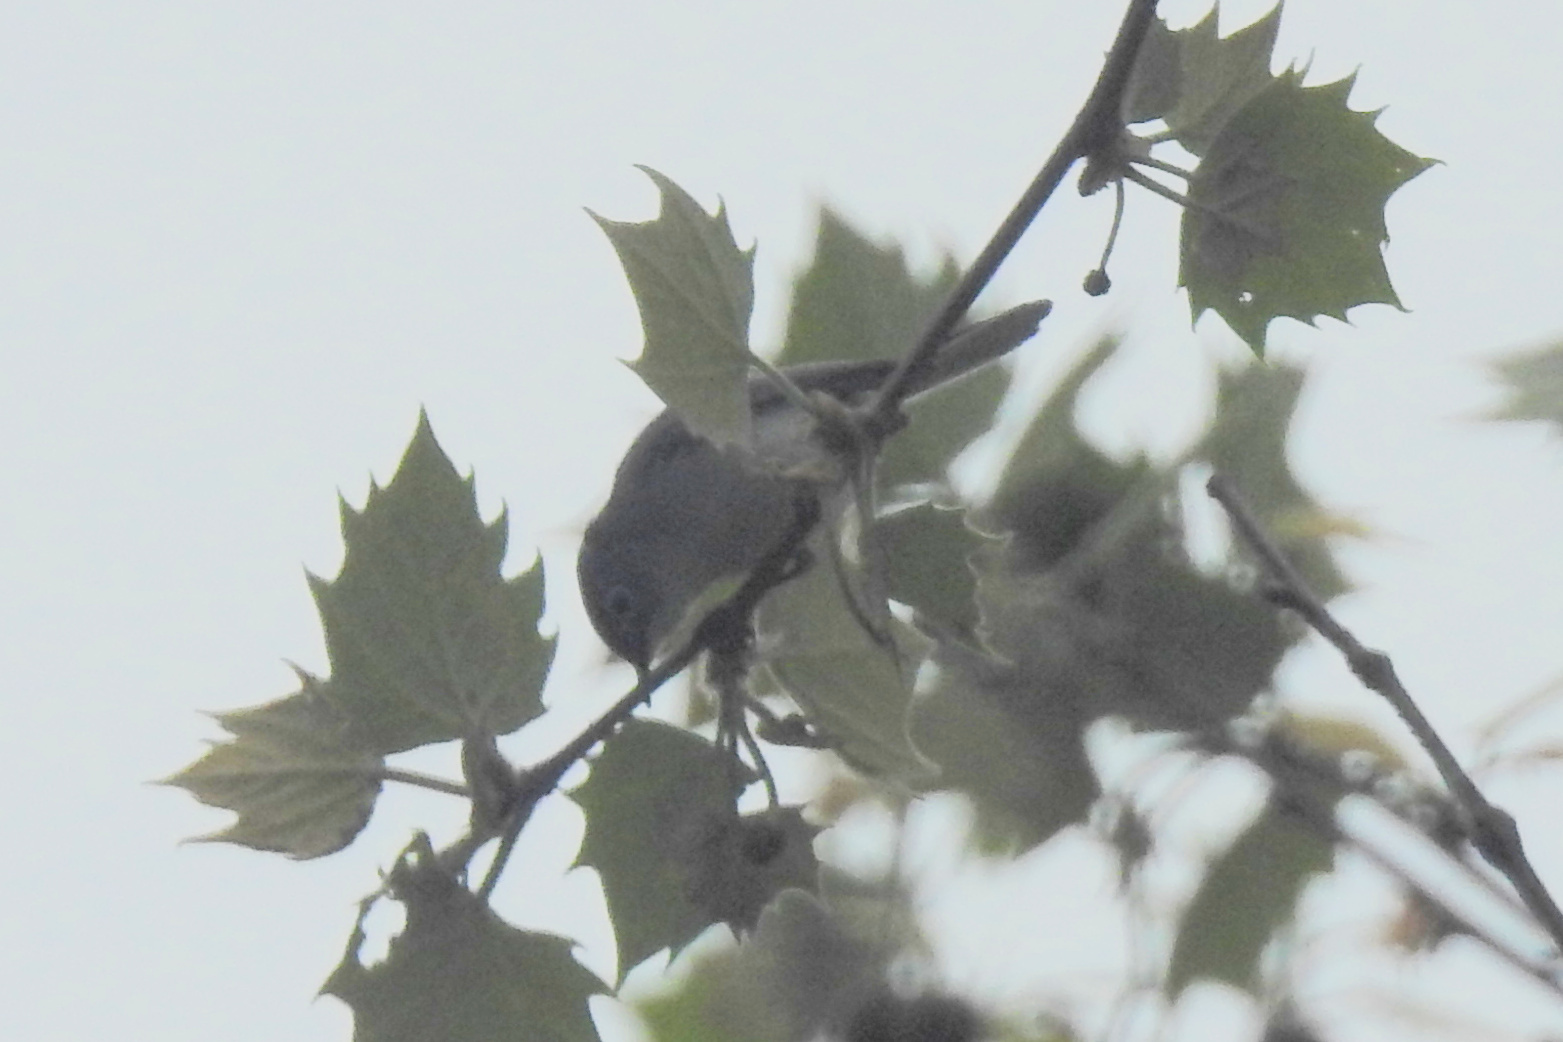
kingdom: Animalia
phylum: Chordata
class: Aves
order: Passeriformes
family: Polioptilidae
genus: Polioptila
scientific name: Polioptila caerulea
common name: Blue-gray gnatcatcher
